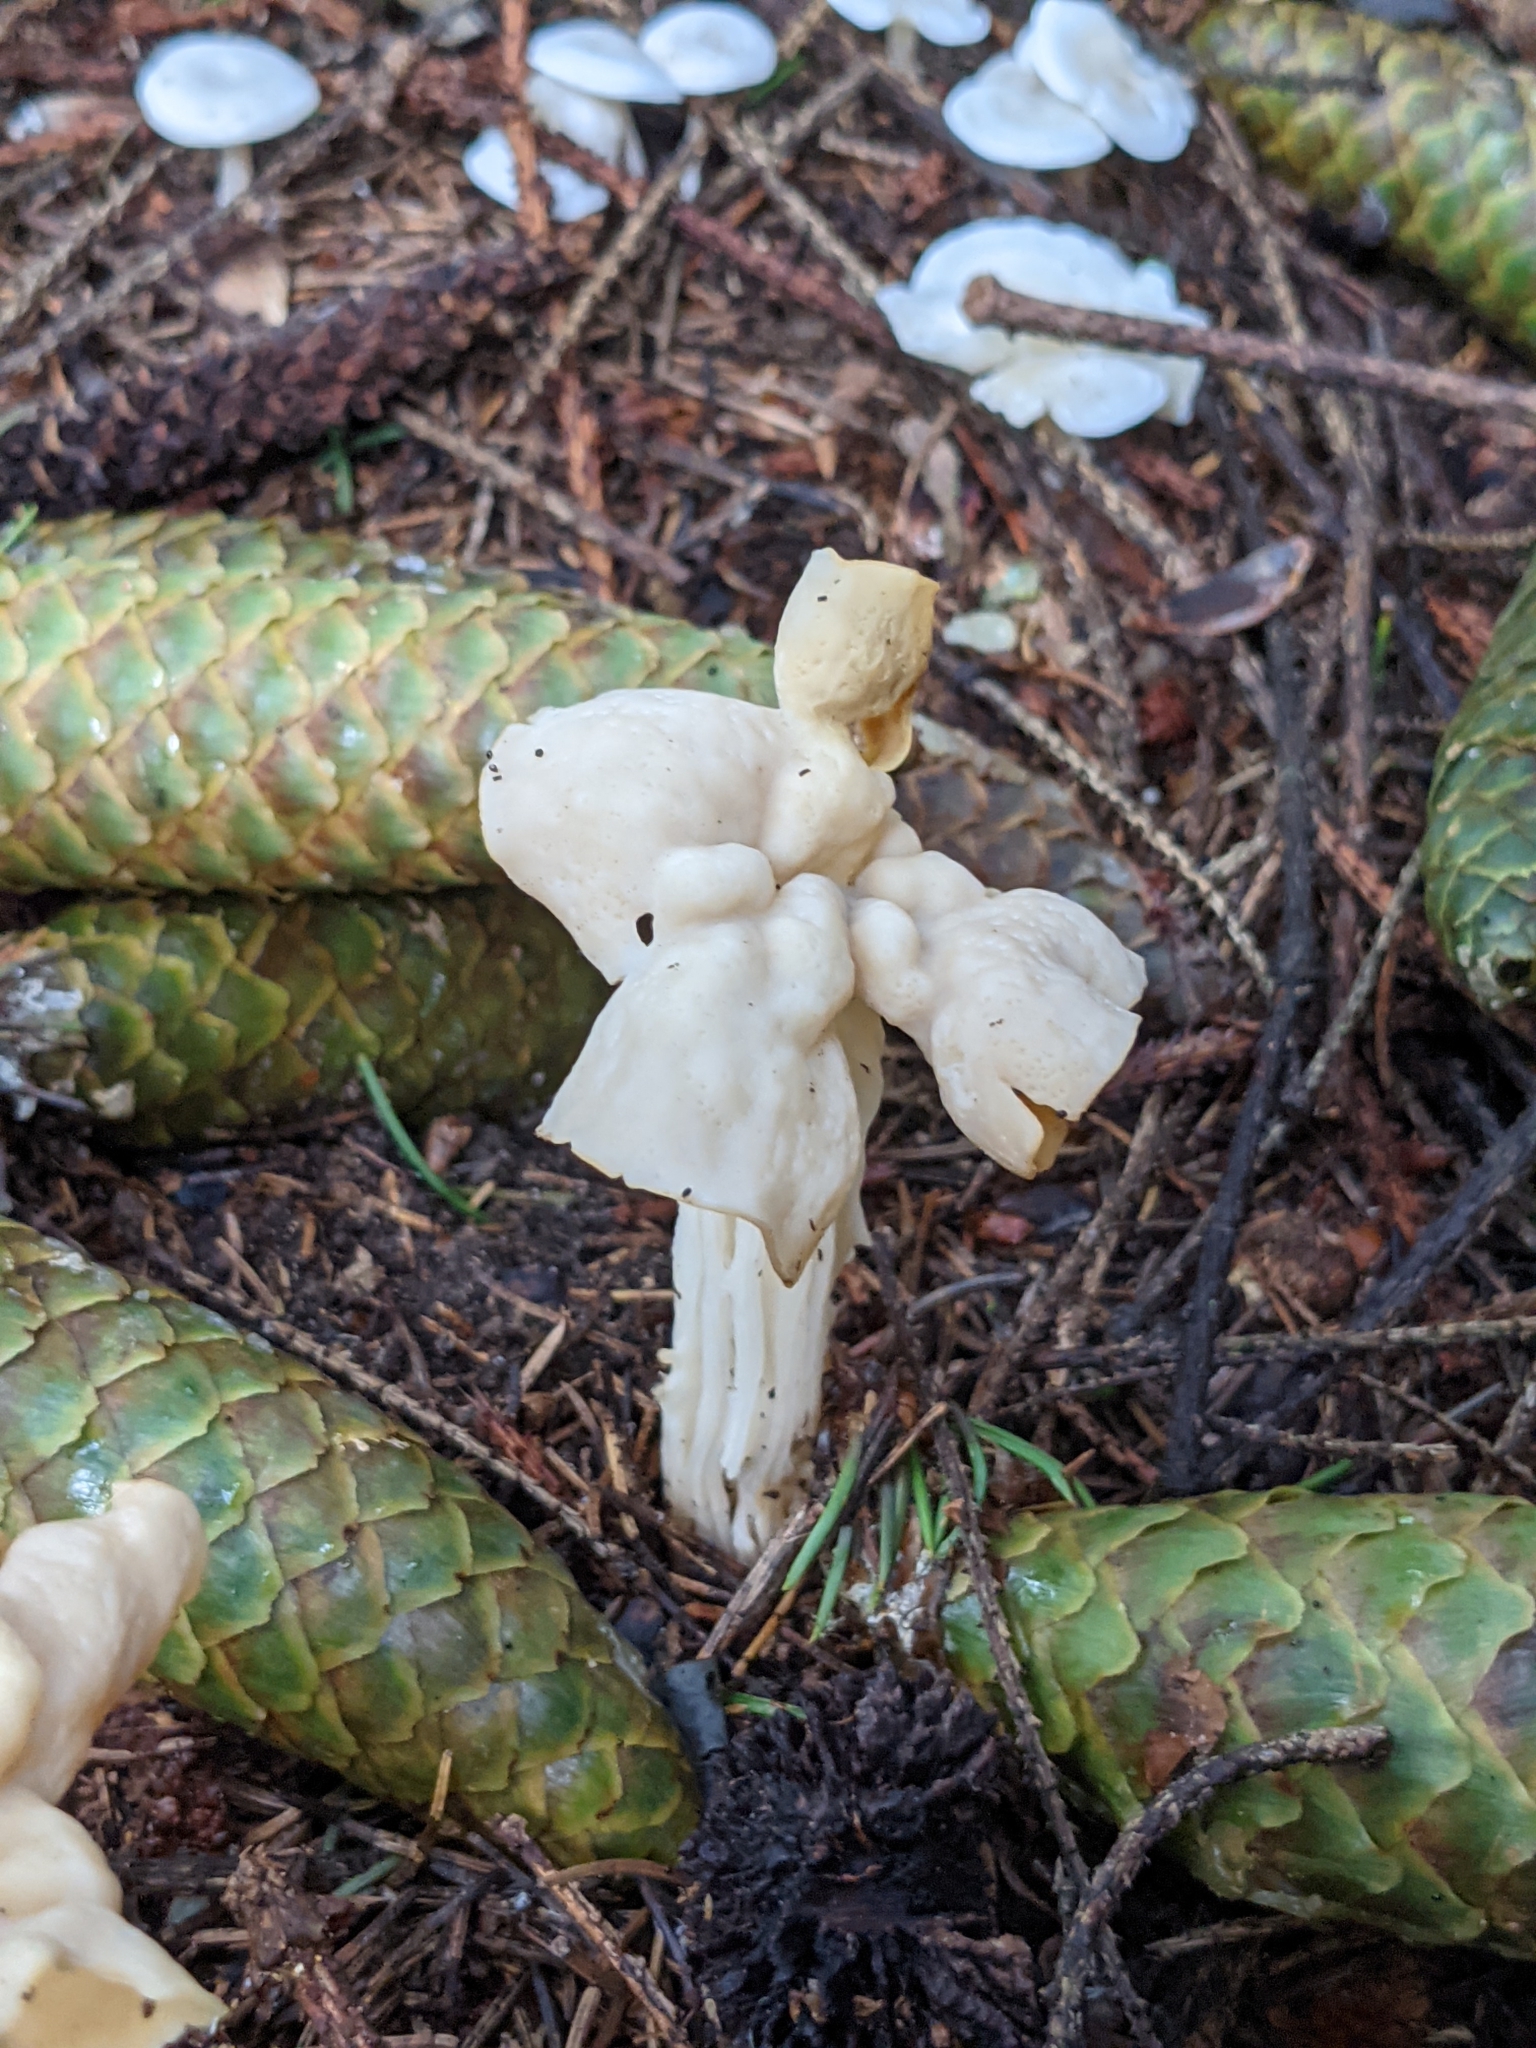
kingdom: Fungi
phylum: Ascomycota
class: Pezizomycetes
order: Pezizales
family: Helvellaceae
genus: Helvella
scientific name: Helvella crispa
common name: White saddle
